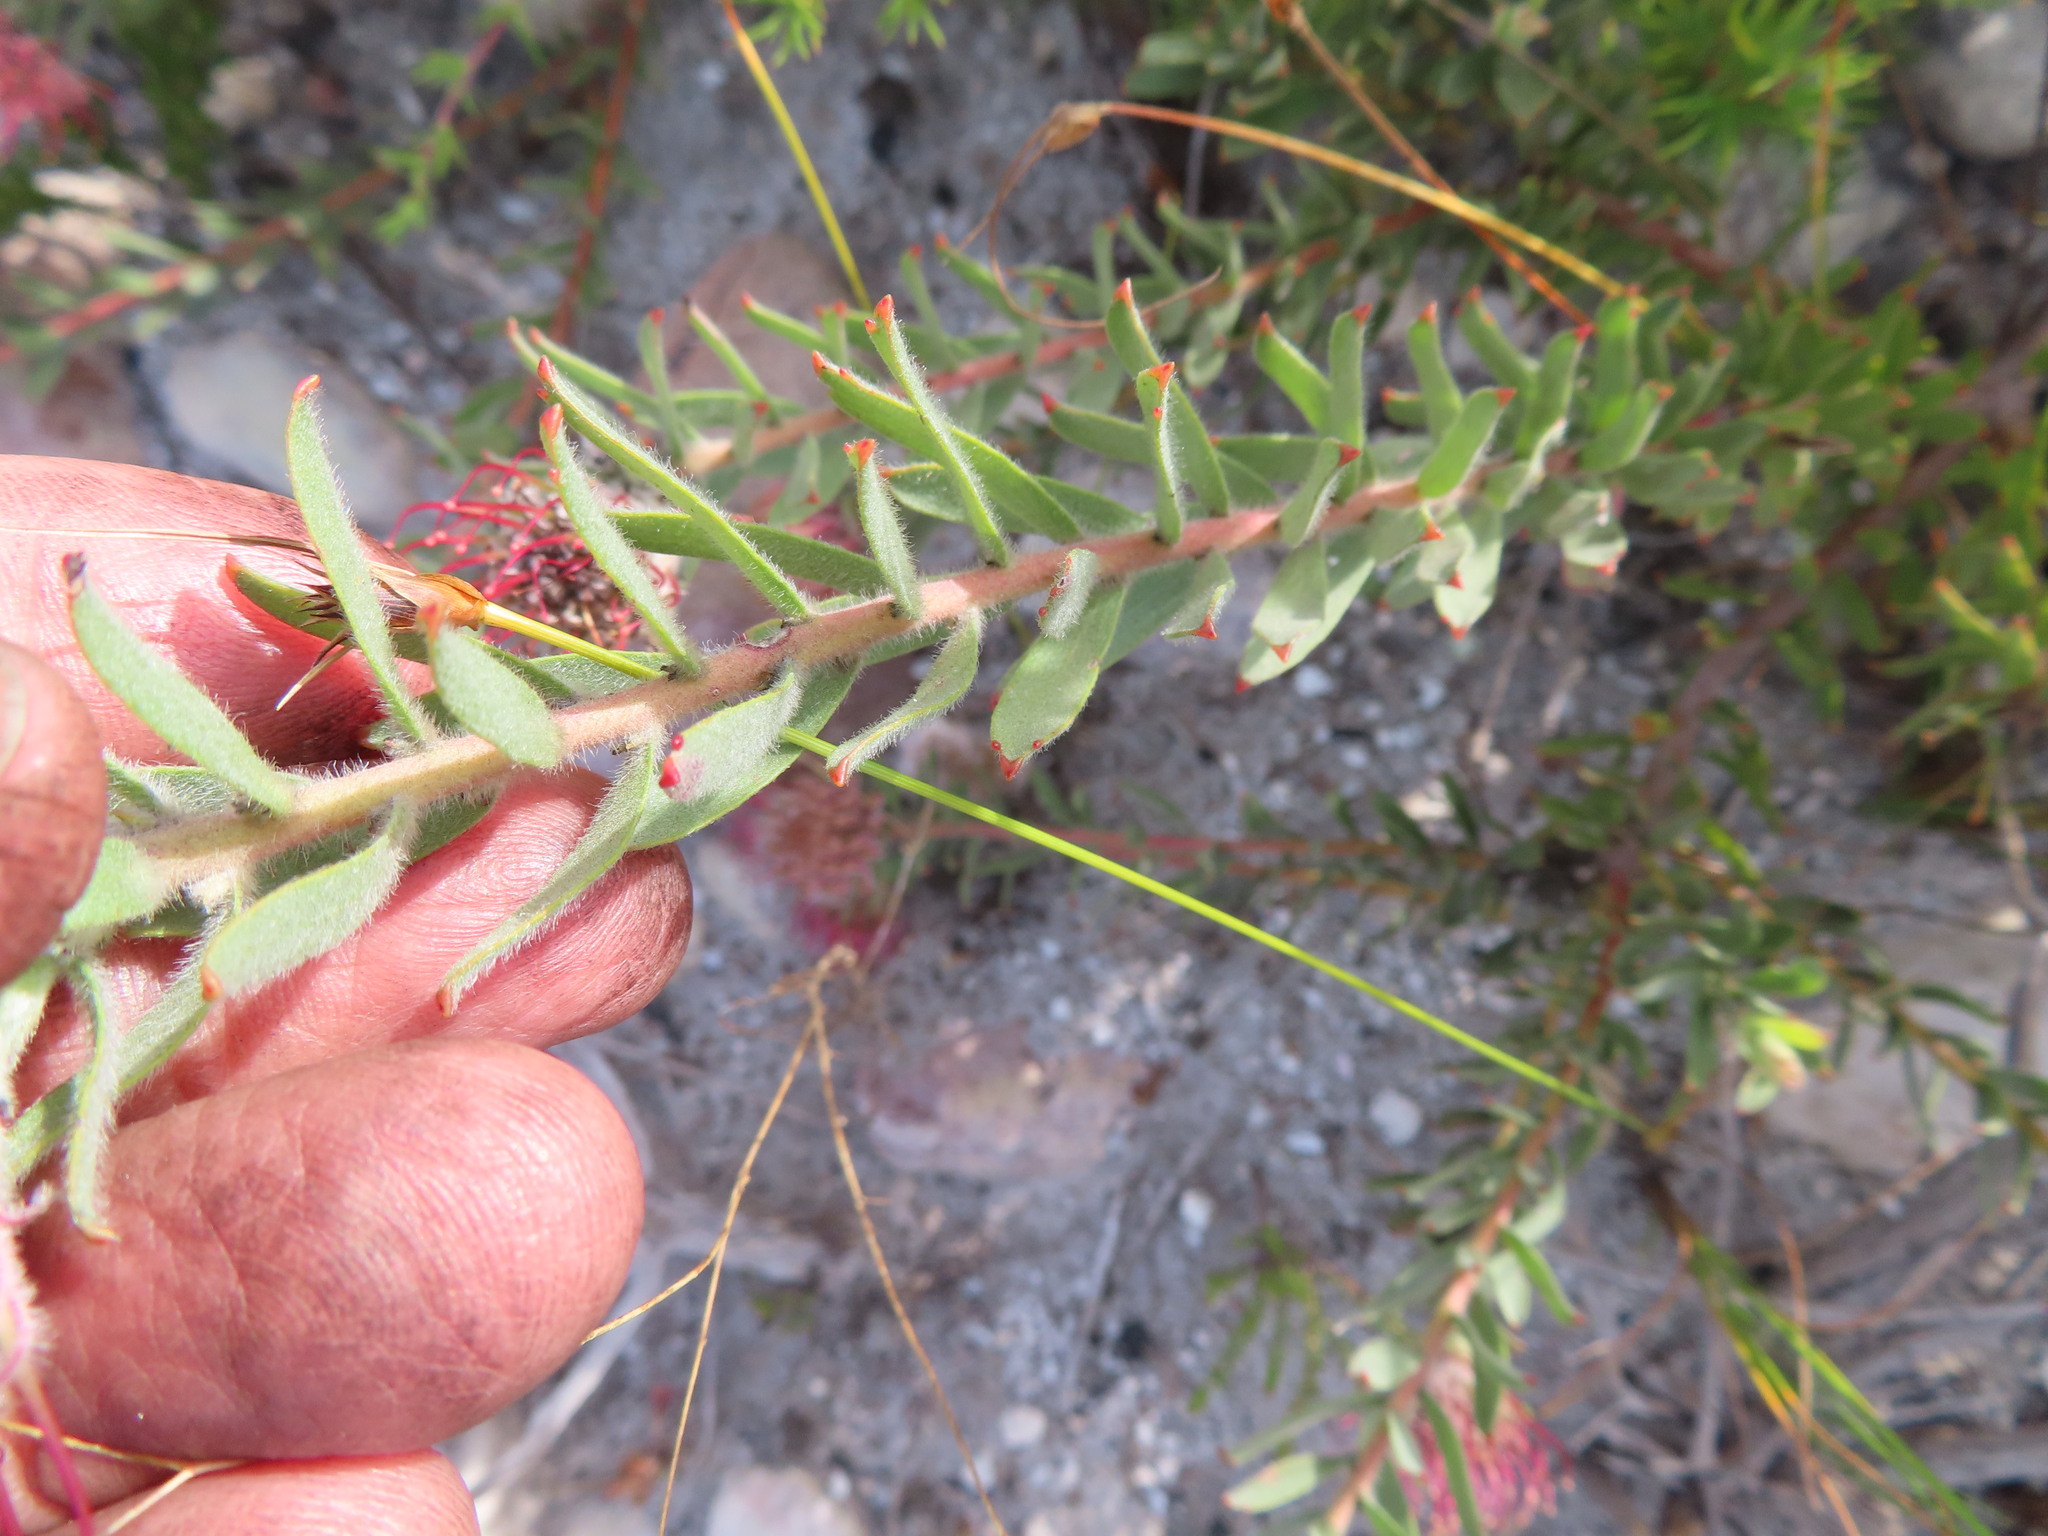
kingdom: Plantae
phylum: Tracheophyta
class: Magnoliopsida
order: Proteales
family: Proteaceae
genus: Leucospermum
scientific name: Leucospermum calligerum
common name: Arid pincushion
